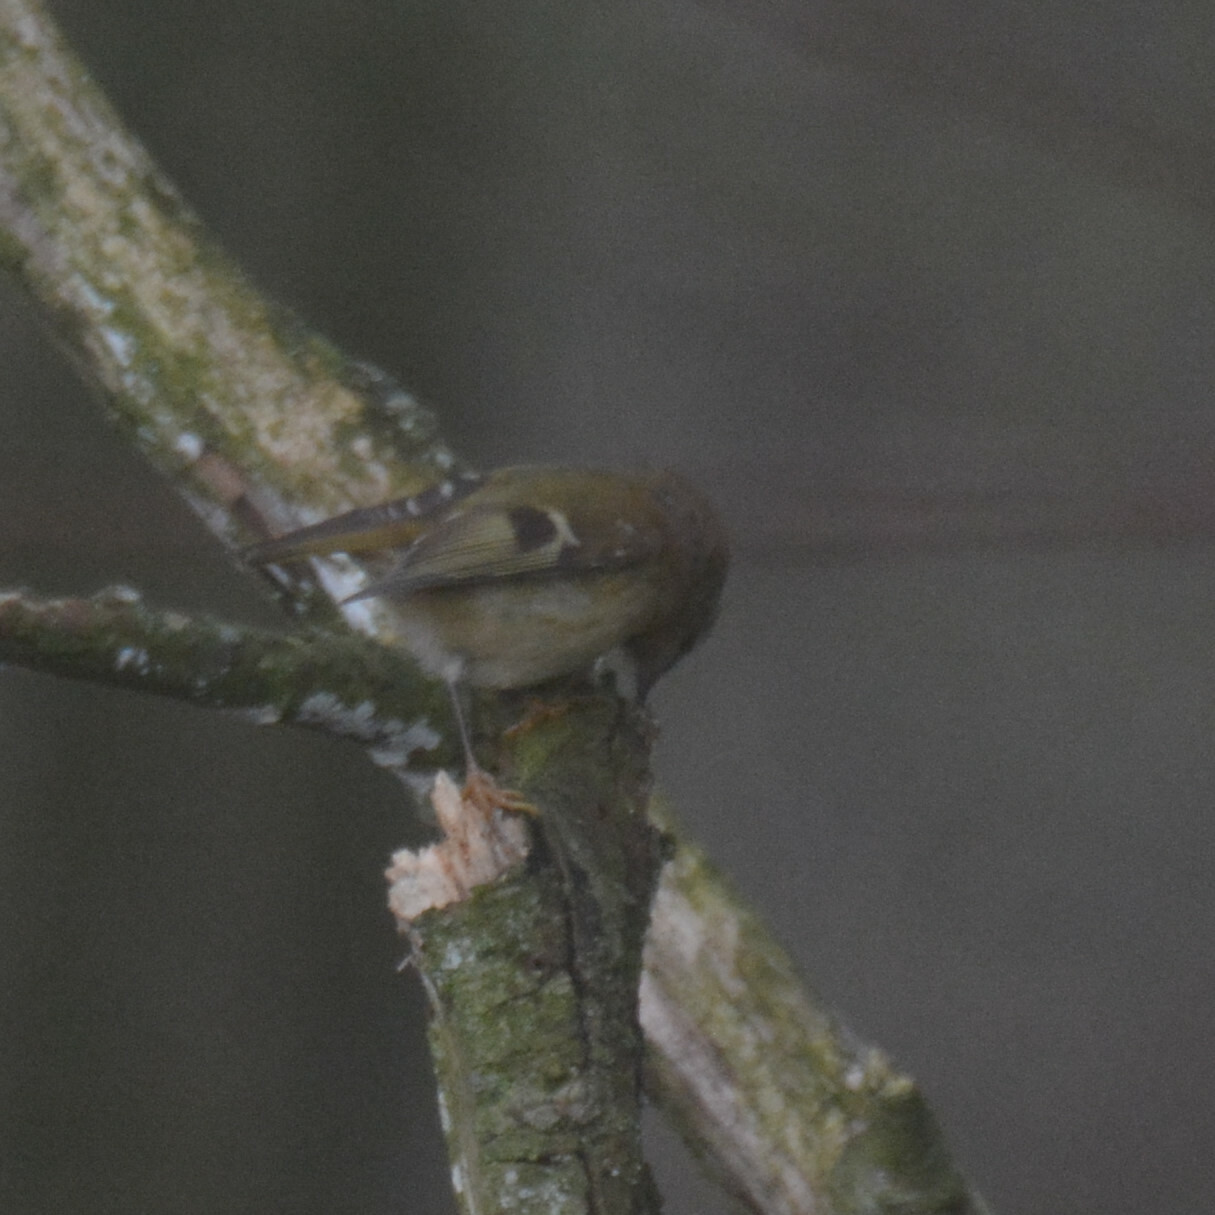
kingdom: Animalia
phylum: Chordata
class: Aves
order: Passeriformes
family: Regulidae
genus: Regulus
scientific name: Regulus regulus
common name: Goldcrest
